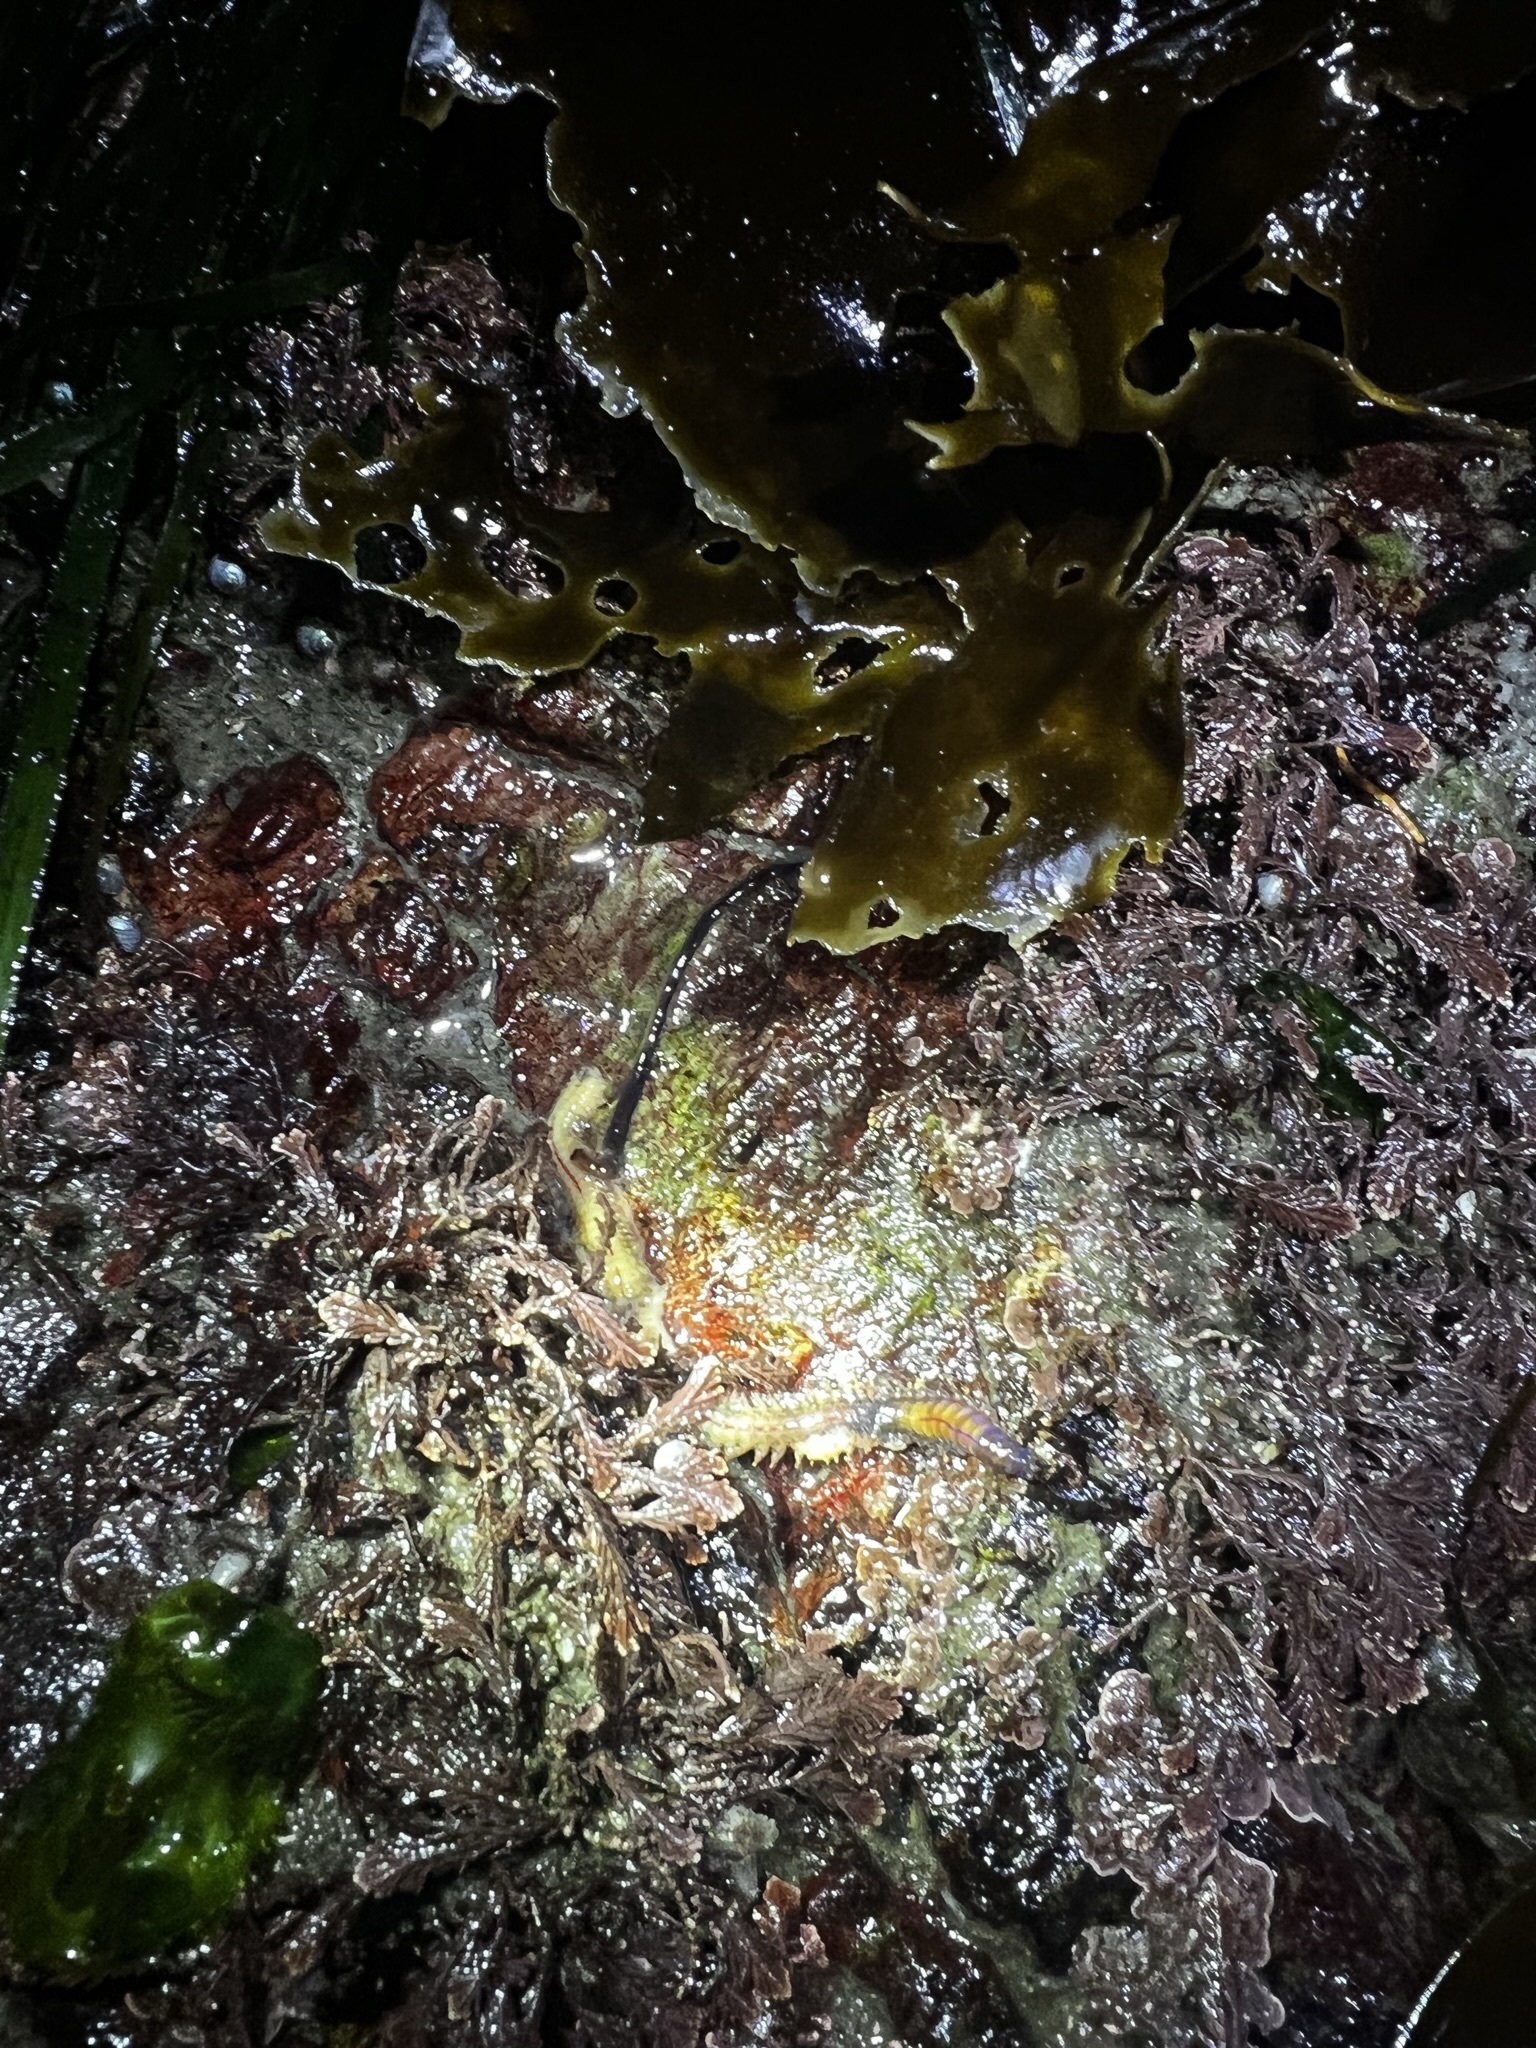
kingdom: Animalia
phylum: Nemertea
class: Hoplonemertea
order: Monostilifera
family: Neesiidae
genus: Paranemertes
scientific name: Paranemertes peregrina
